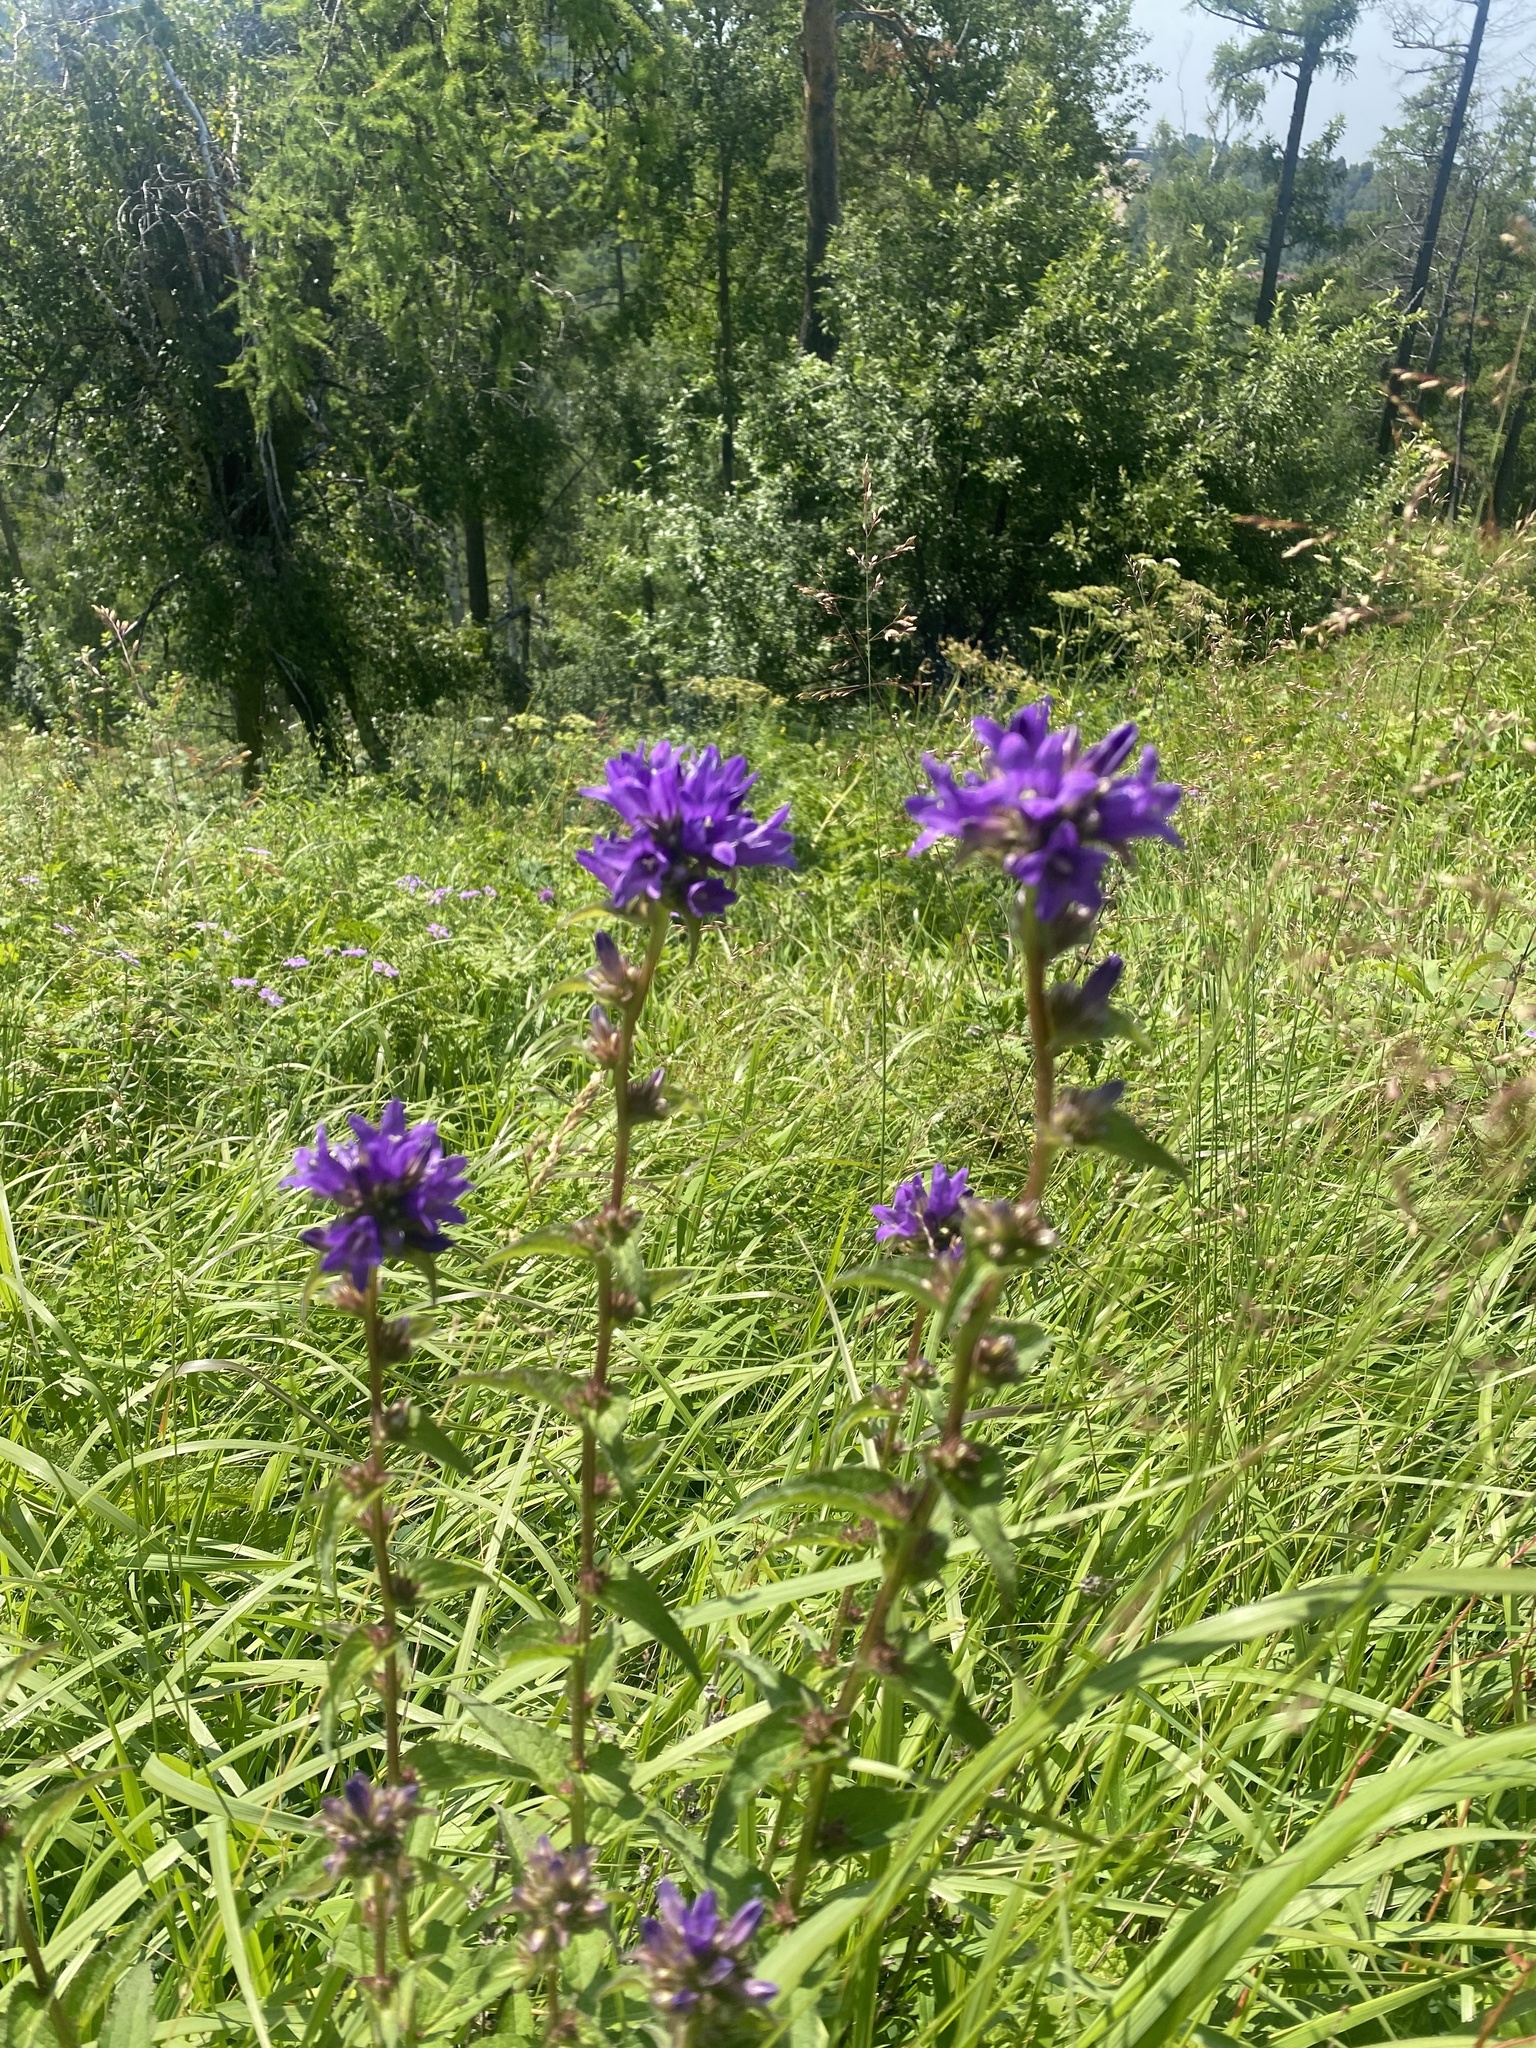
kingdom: Plantae
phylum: Tracheophyta
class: Magnoliopsida
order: Asterales
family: Campanulaceae
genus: Campanula
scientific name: Campanula glomerata
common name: Clustered bellflower
